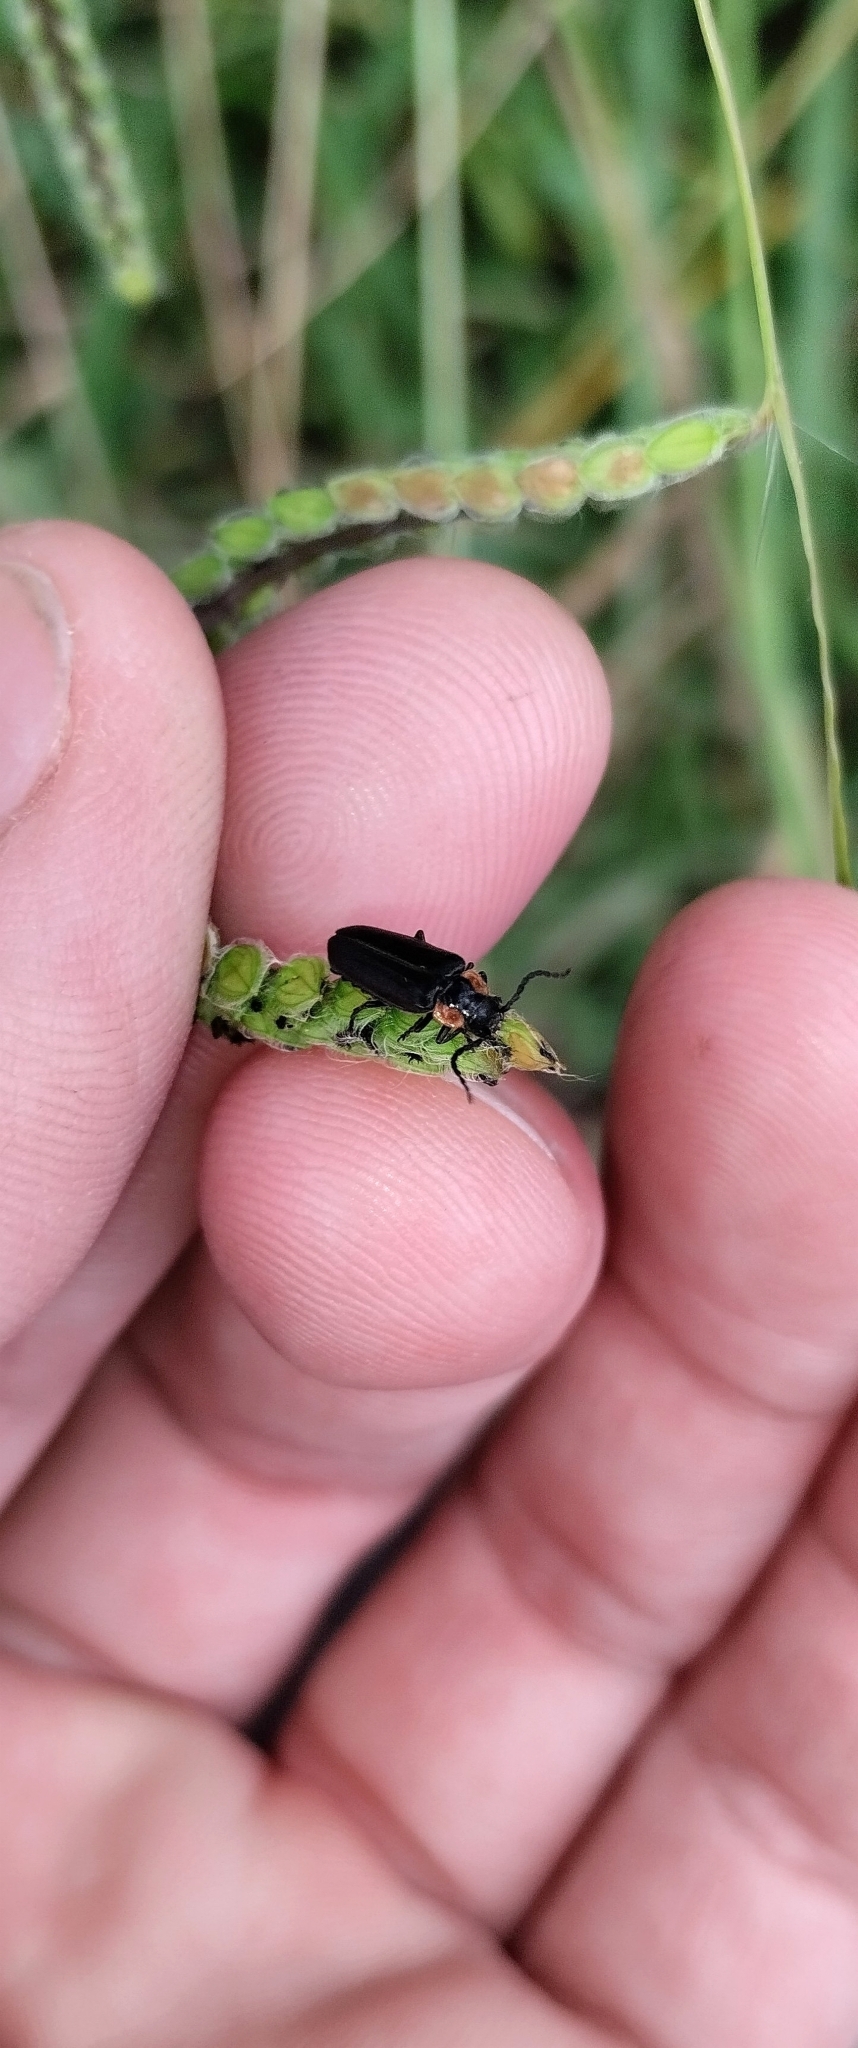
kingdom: Animalia
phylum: Arthropoda
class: Insecta
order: Coleoptera
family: Cantharidae
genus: Polemius
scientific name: Polemius
